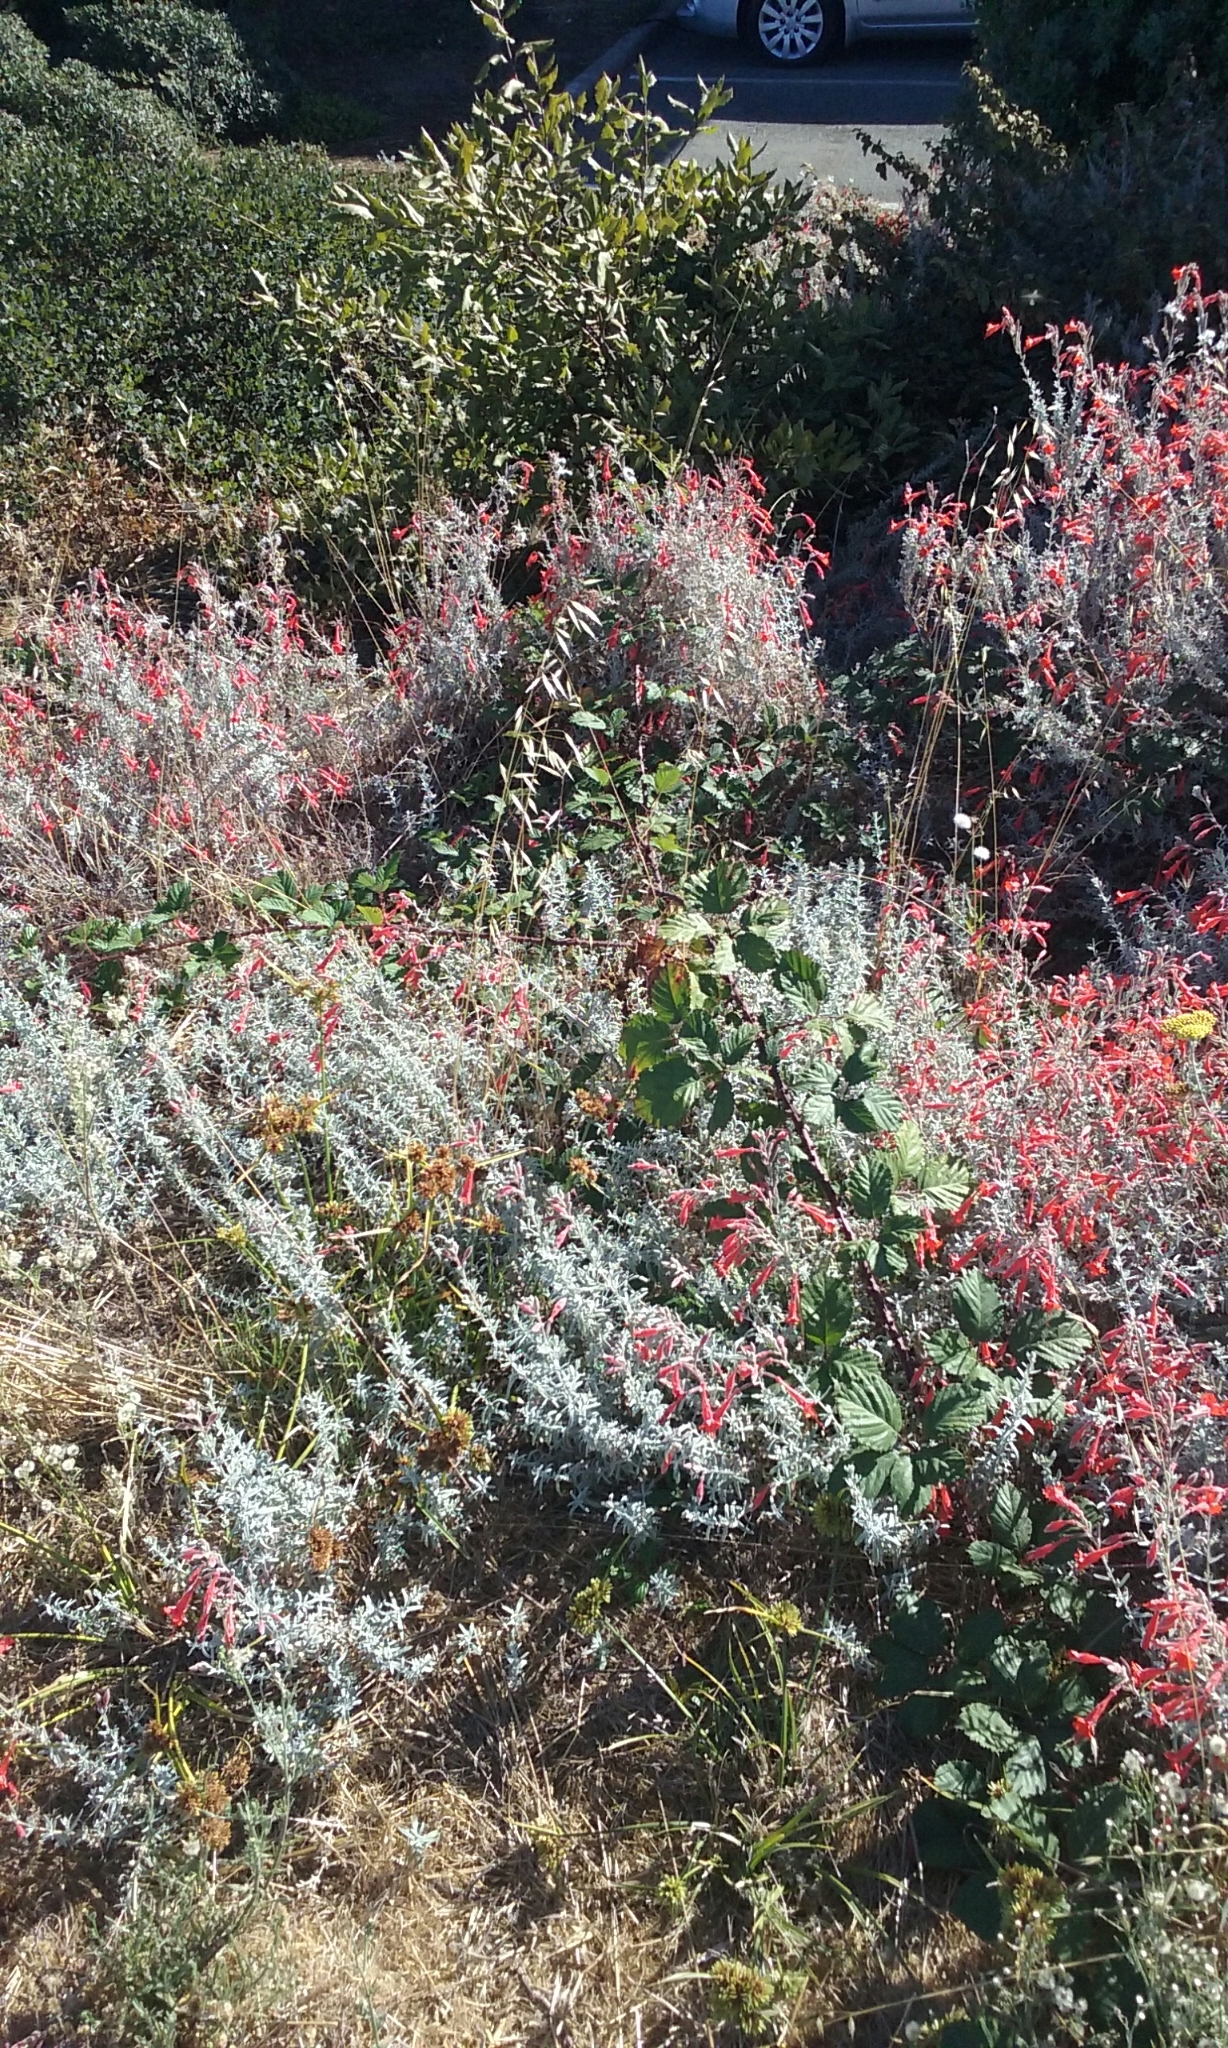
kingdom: Plantae
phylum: Tracheophyta
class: Magnoliopsida
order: Rosales
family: Rosaceae
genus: Rubus
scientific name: Rubus armeniacus
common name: Himalayan blackberry
